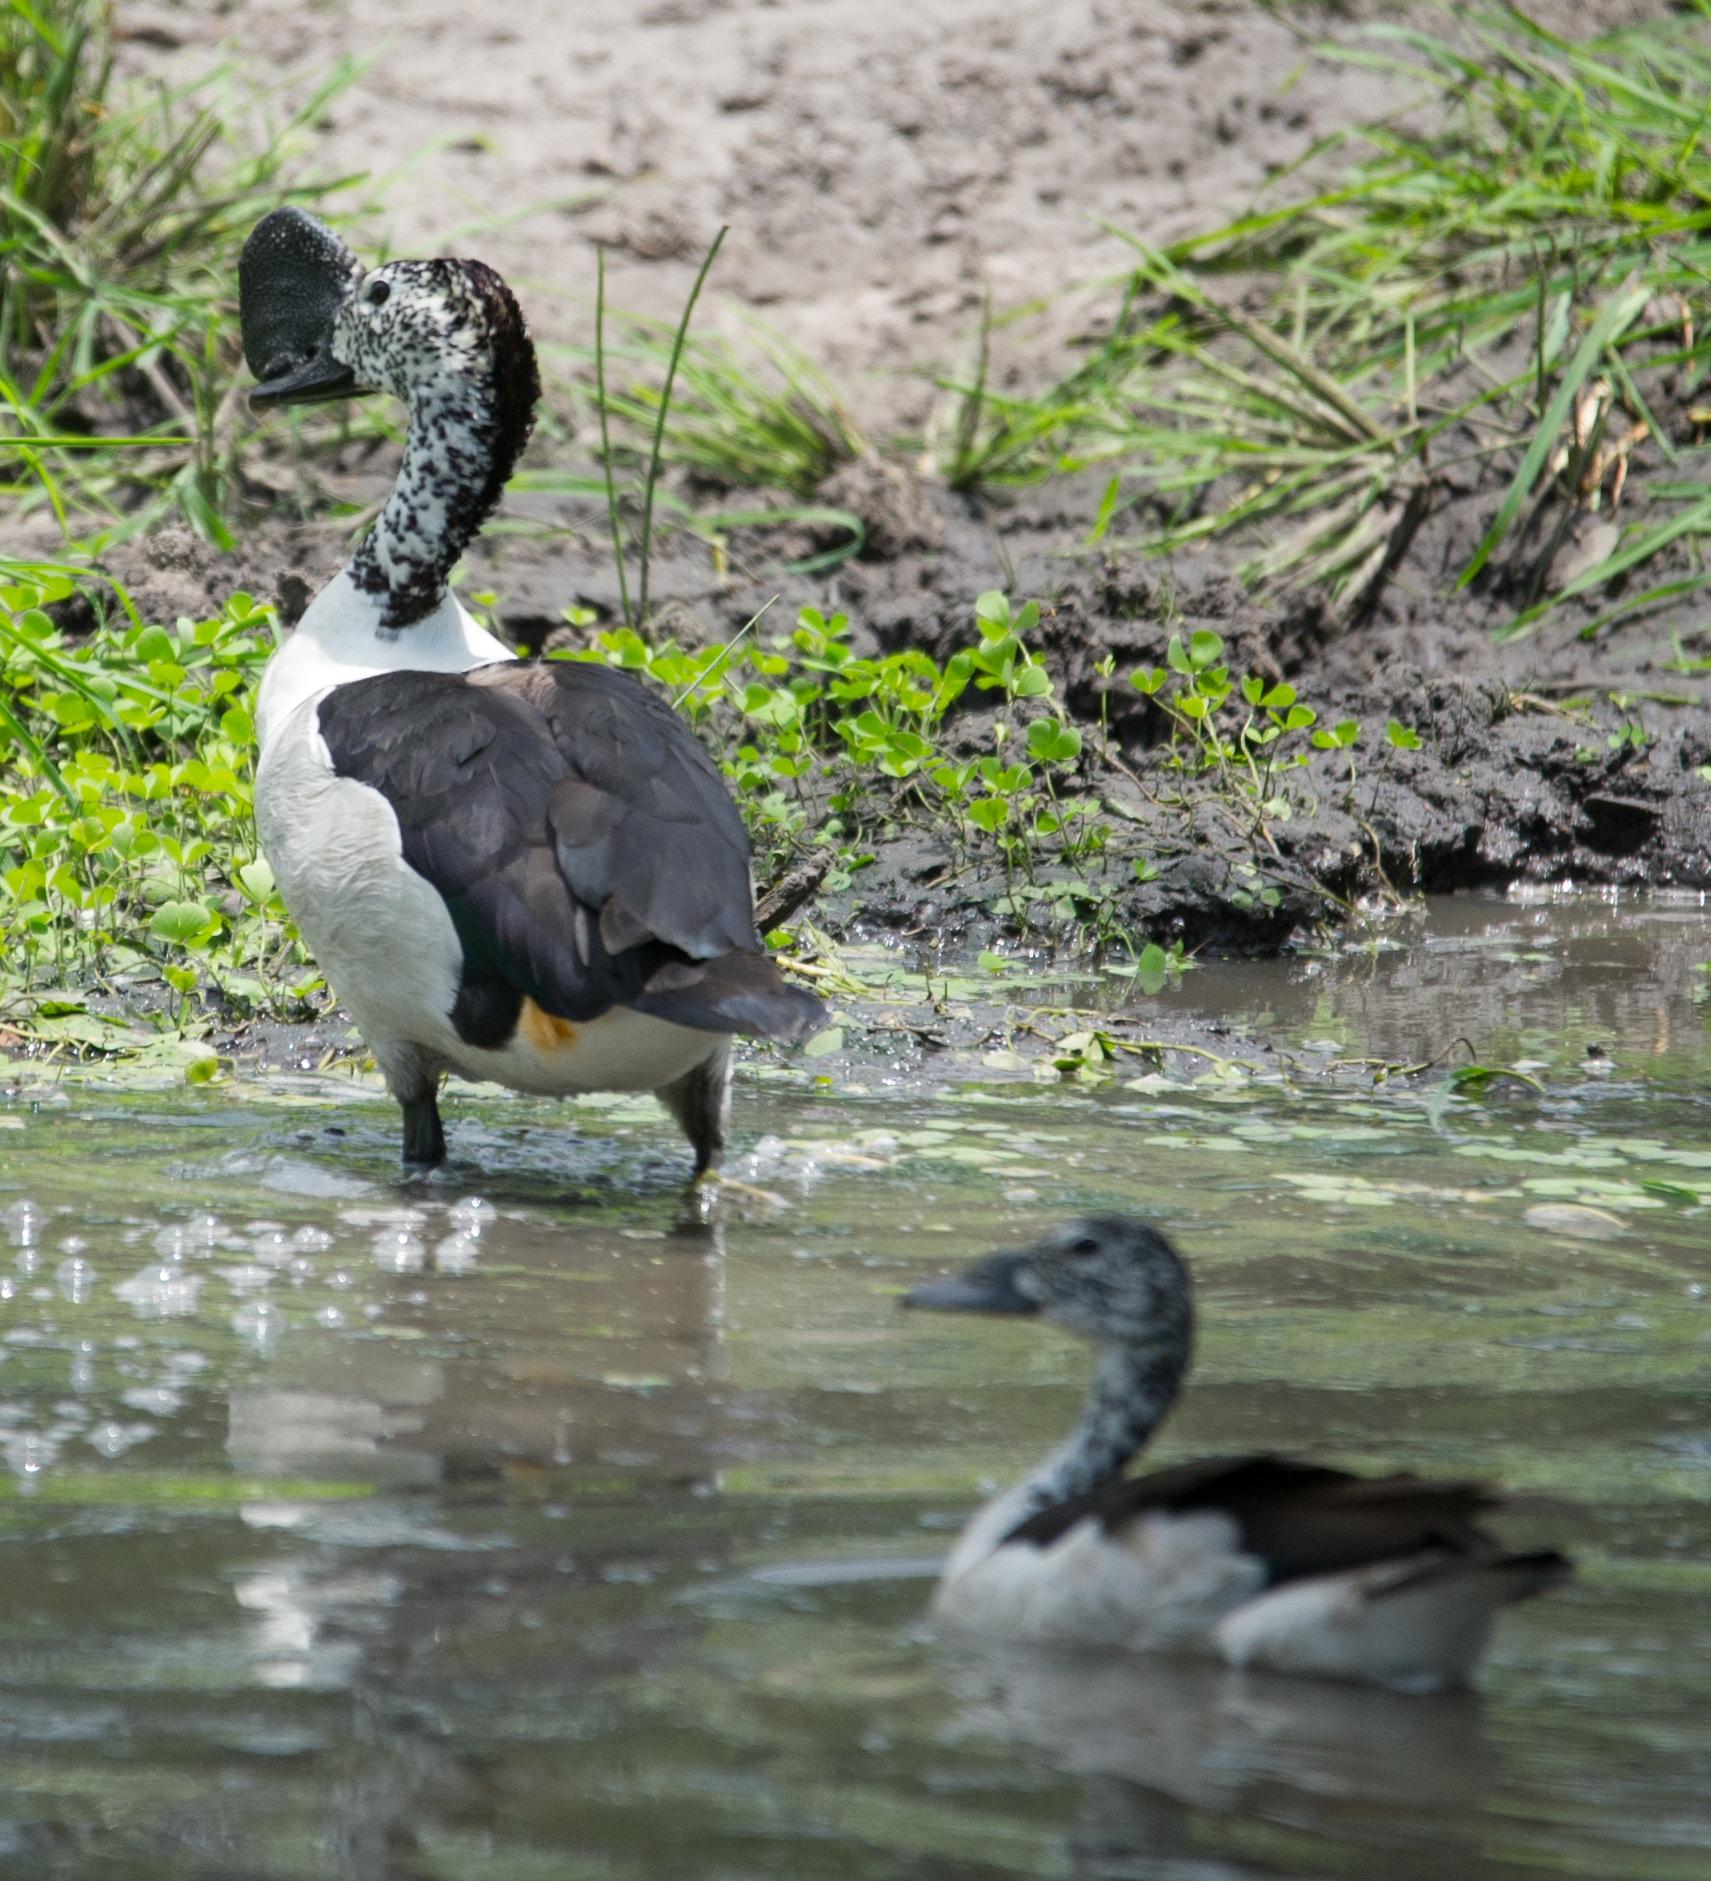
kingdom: Animalia
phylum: Chordata
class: Aves
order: Anseriformes
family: Anatidae
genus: Sarkidiornis
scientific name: Sarkidiornis melanotos
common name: Comb duck
